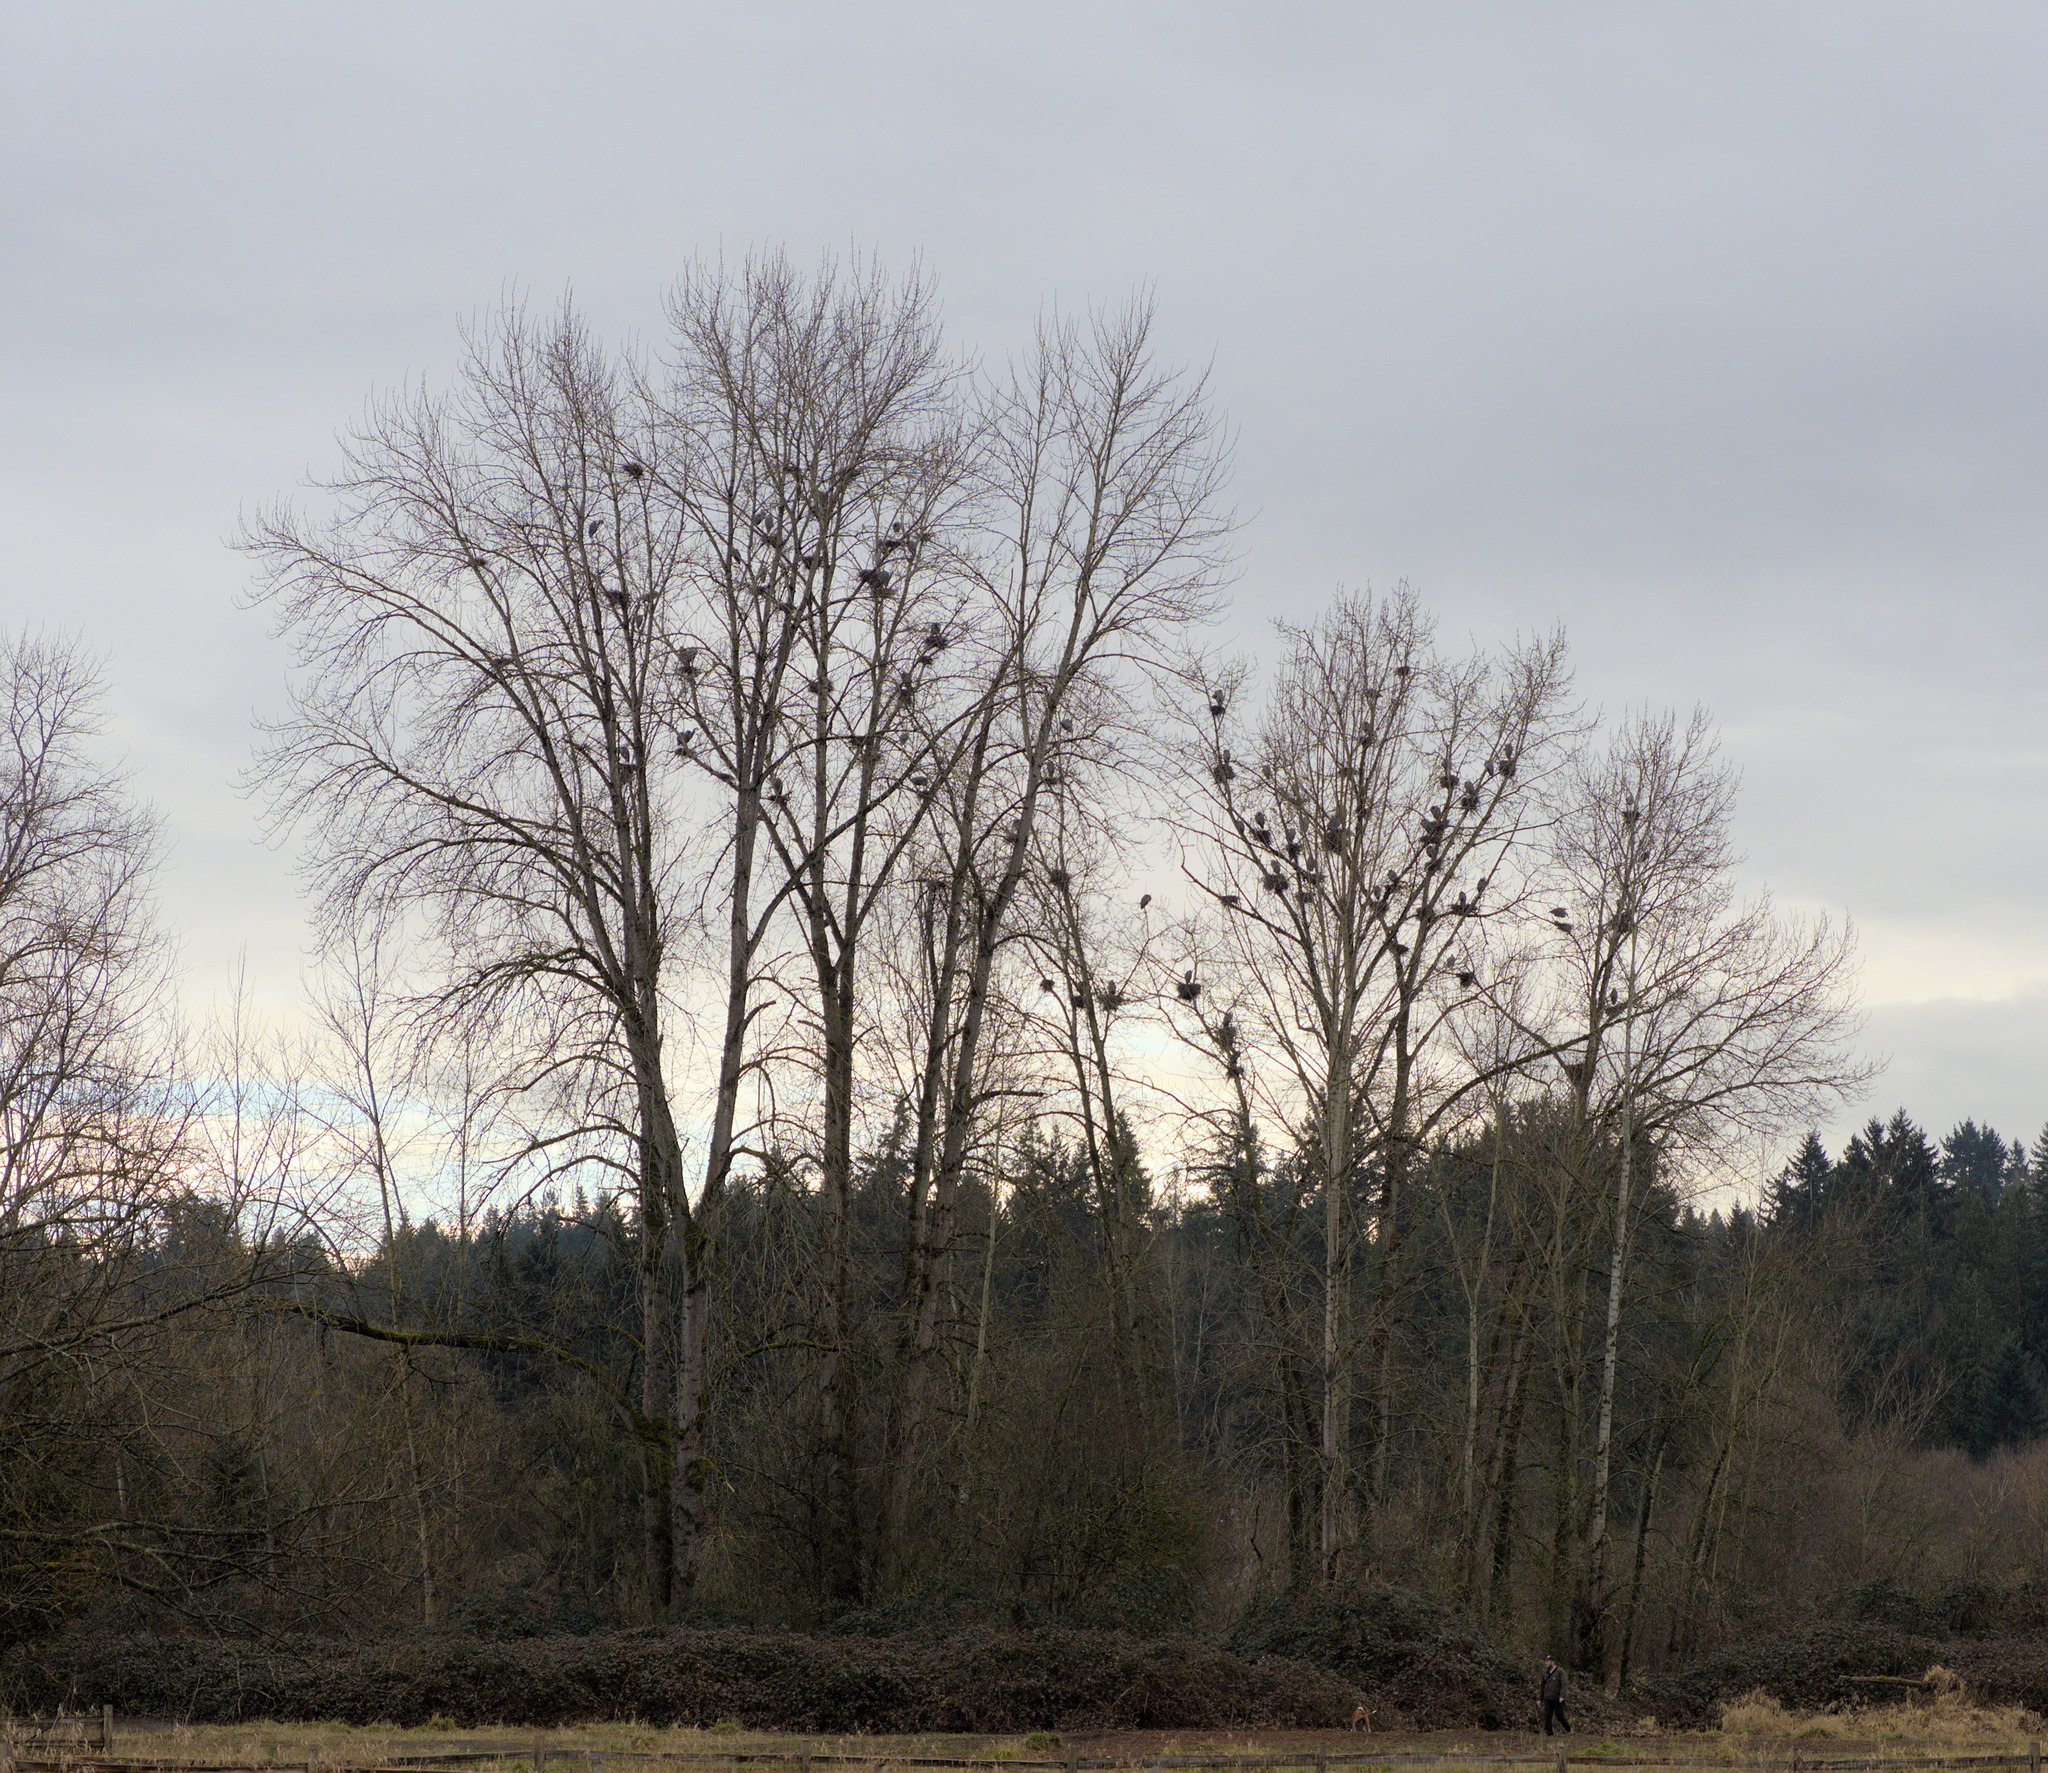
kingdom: Animalia
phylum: Chordata
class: Aves
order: Pelecaniformes
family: Ardeidae
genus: Ardea
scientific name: Ardea herodias
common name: Great blue heron
